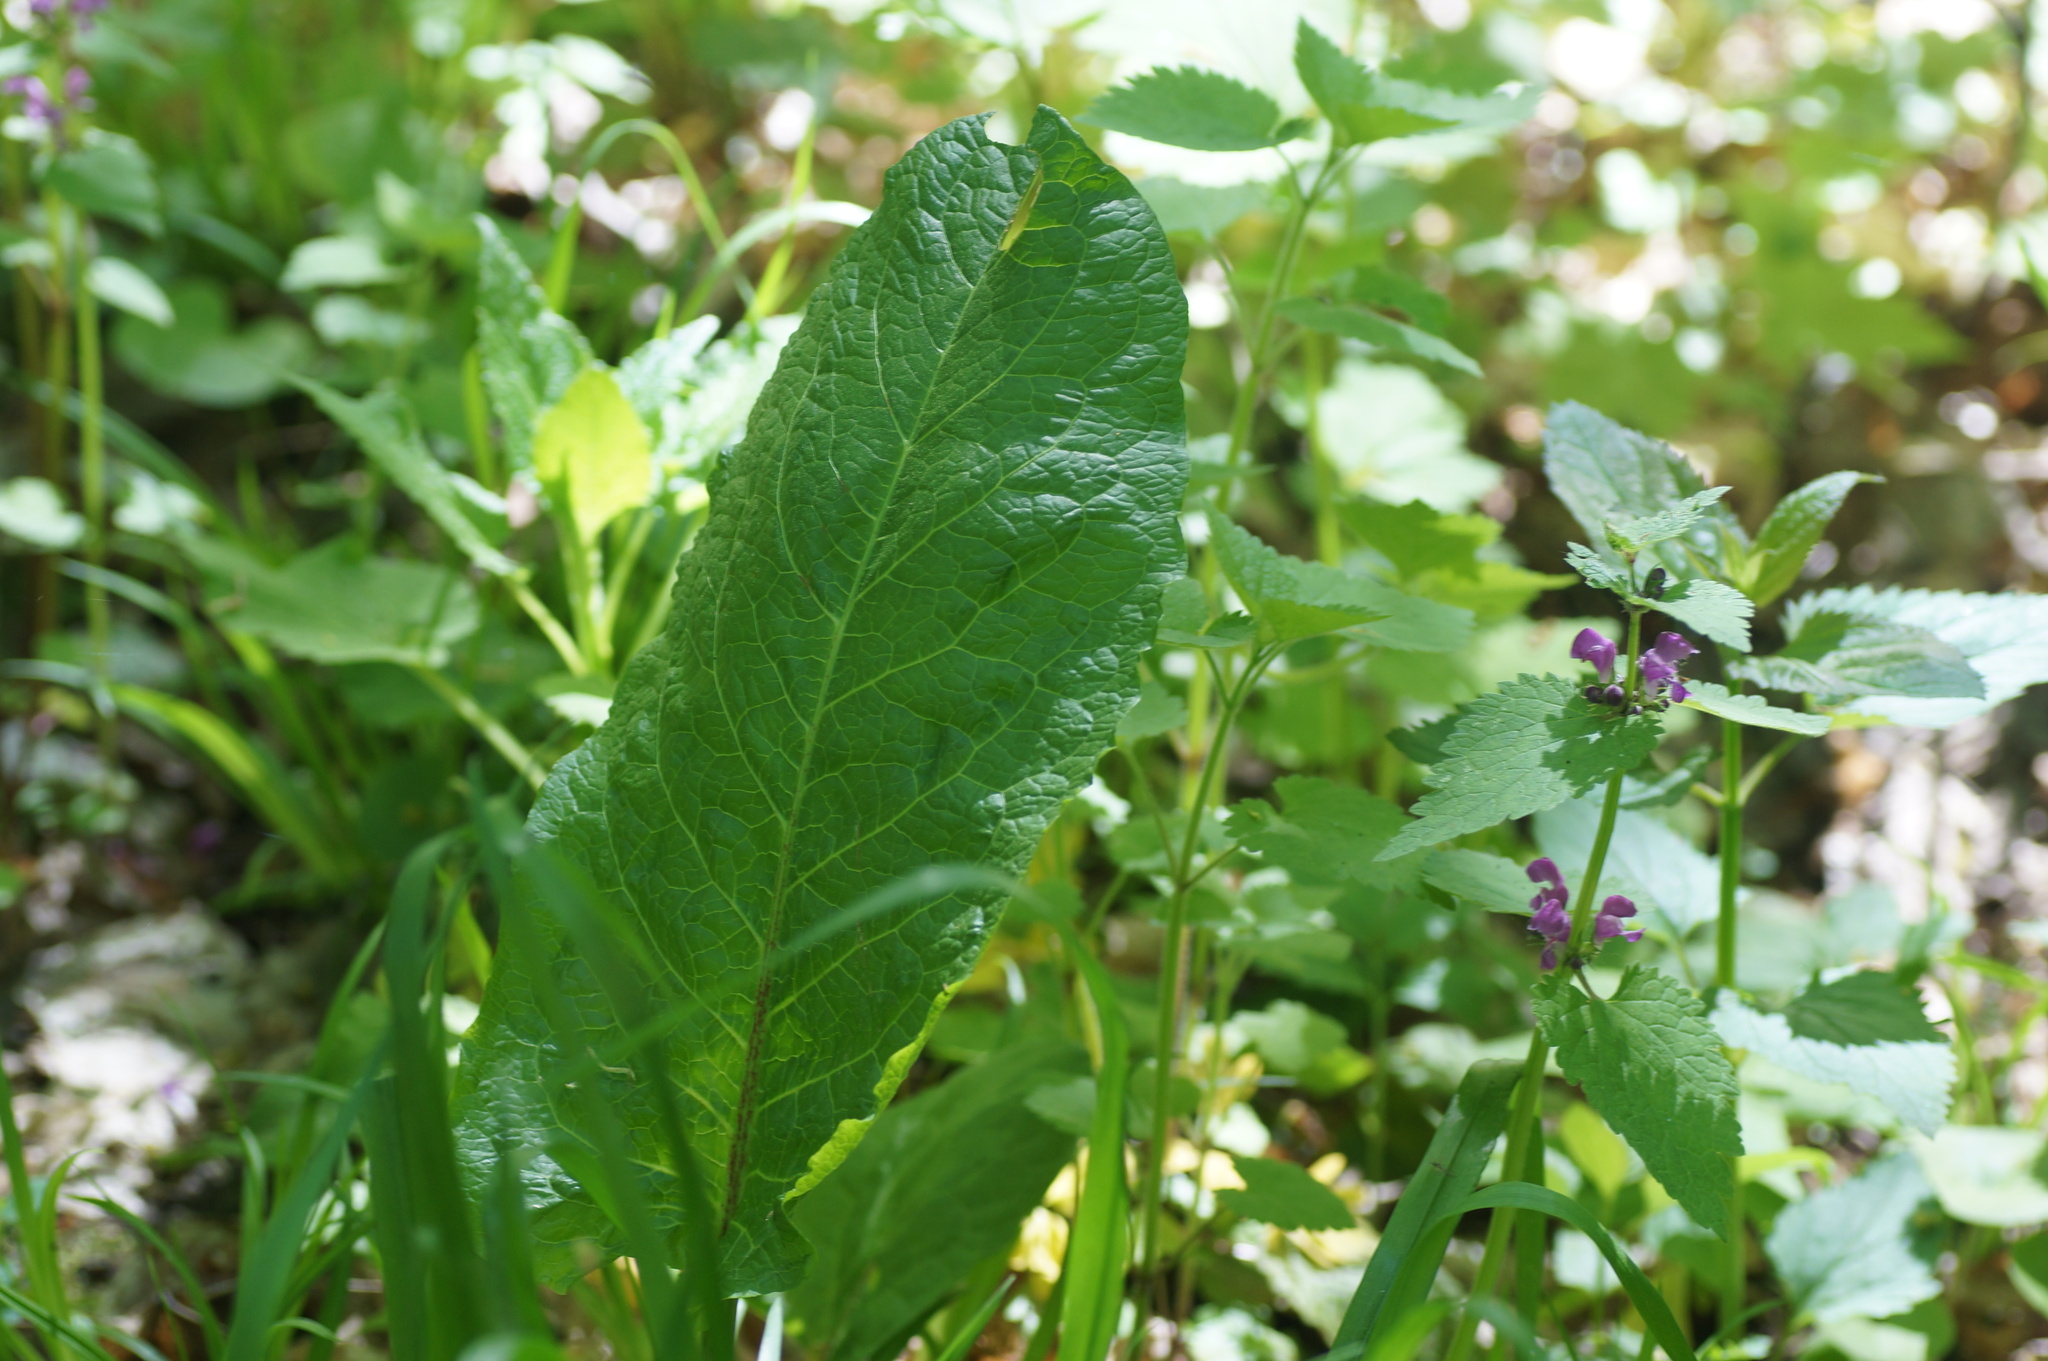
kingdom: Plantae
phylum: Tracheophyta
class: Magnoliopsida
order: Caryophyllales
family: Polygonaceae
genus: Rumex
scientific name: Rumex obtusifolius
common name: Bitter dock
